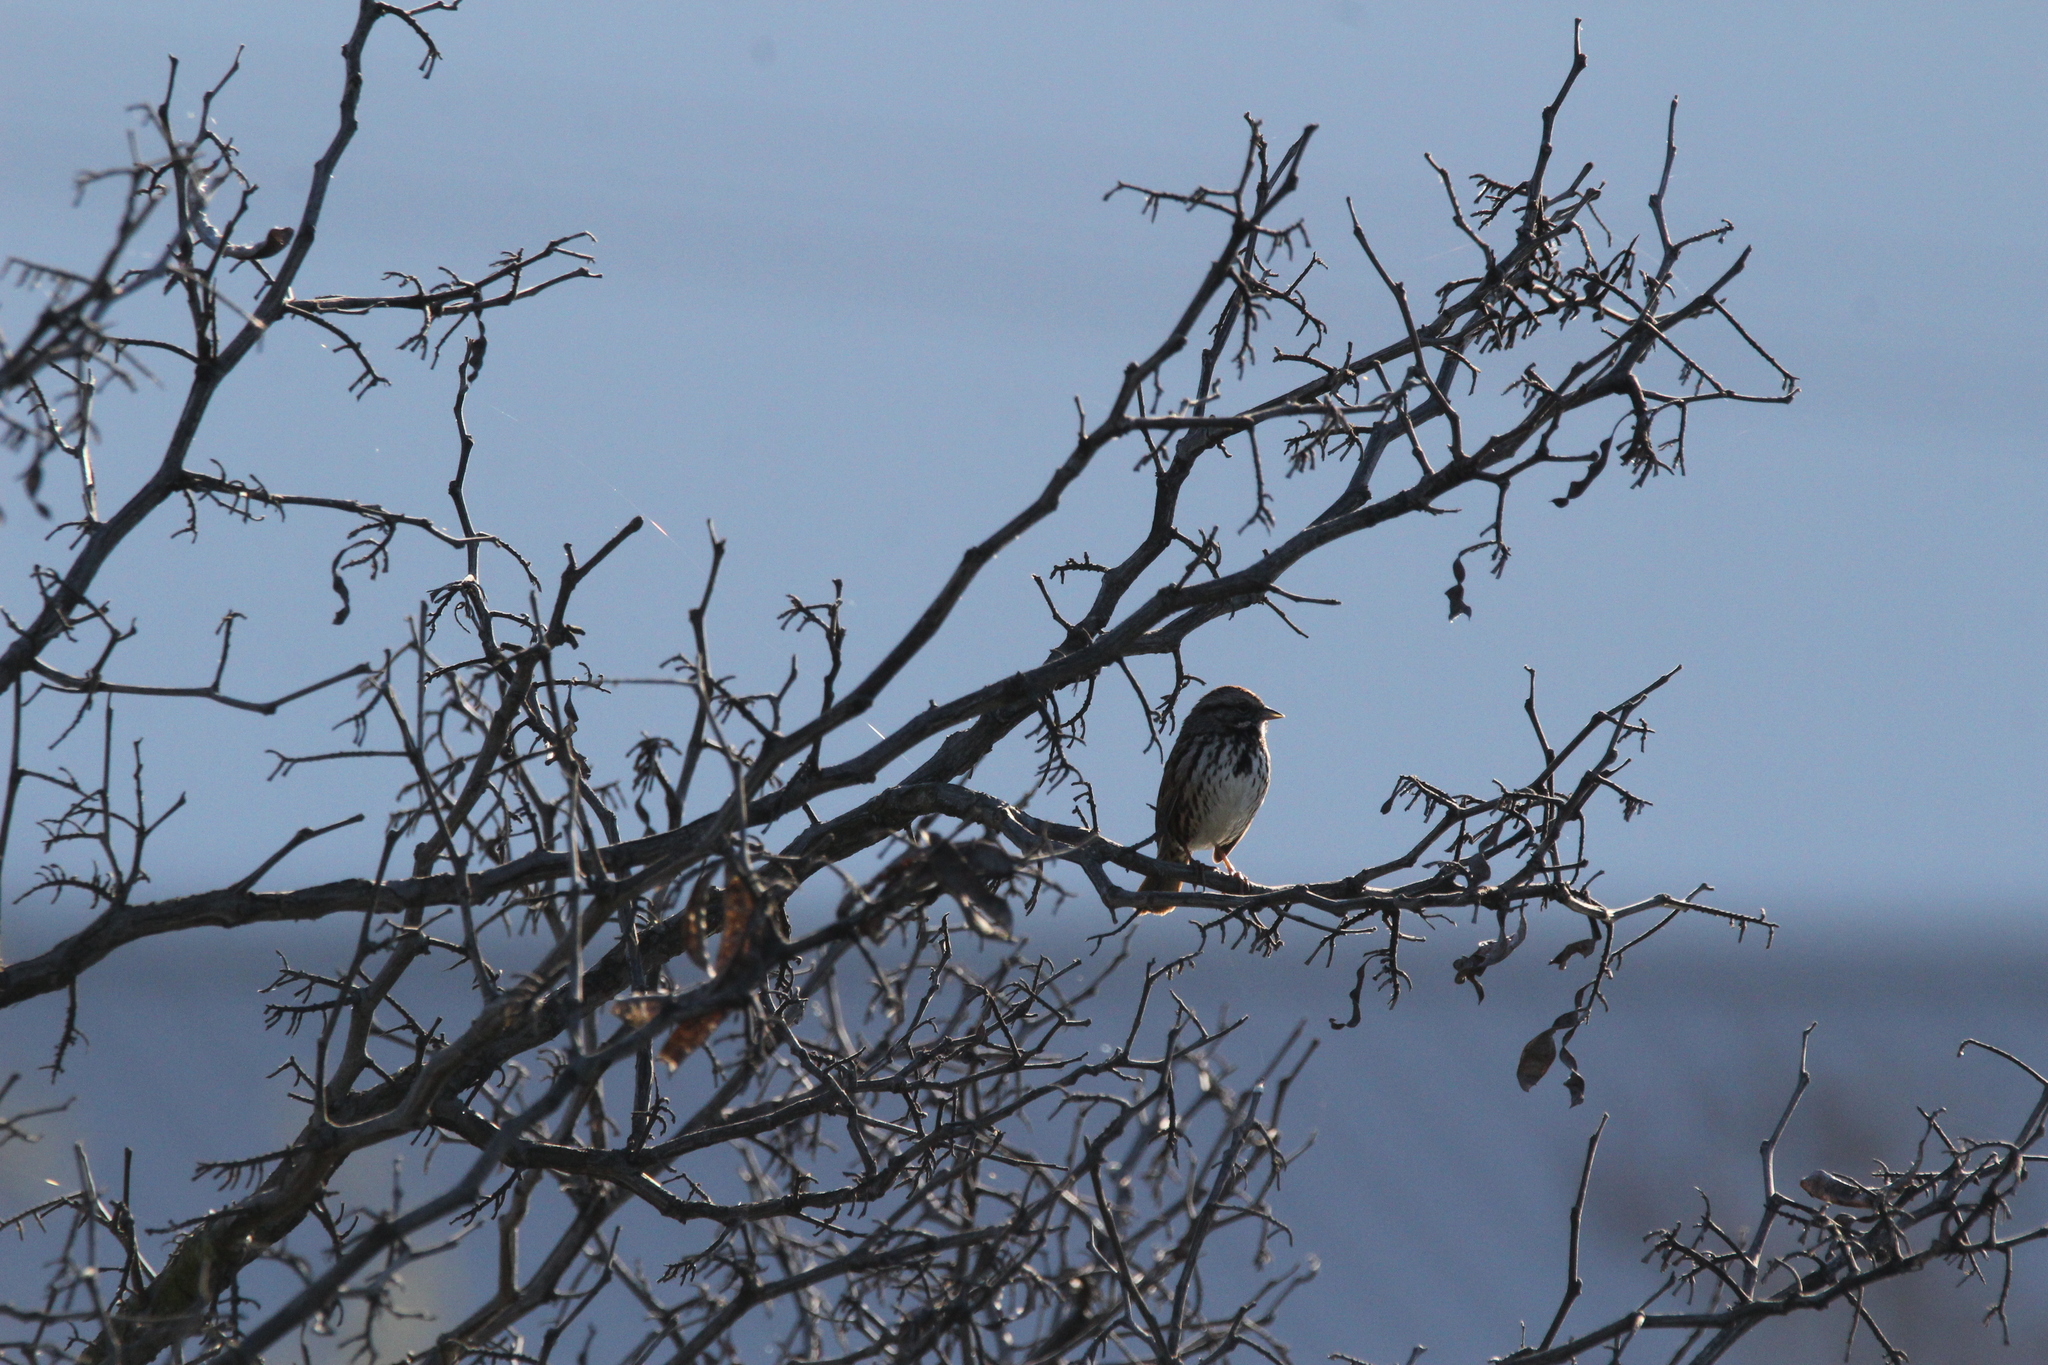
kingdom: Animalia
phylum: Chordata
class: Aves
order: Passeriformes
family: Passerellidae
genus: Melospiza
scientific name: Melospiza melodia
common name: Song sparrow
